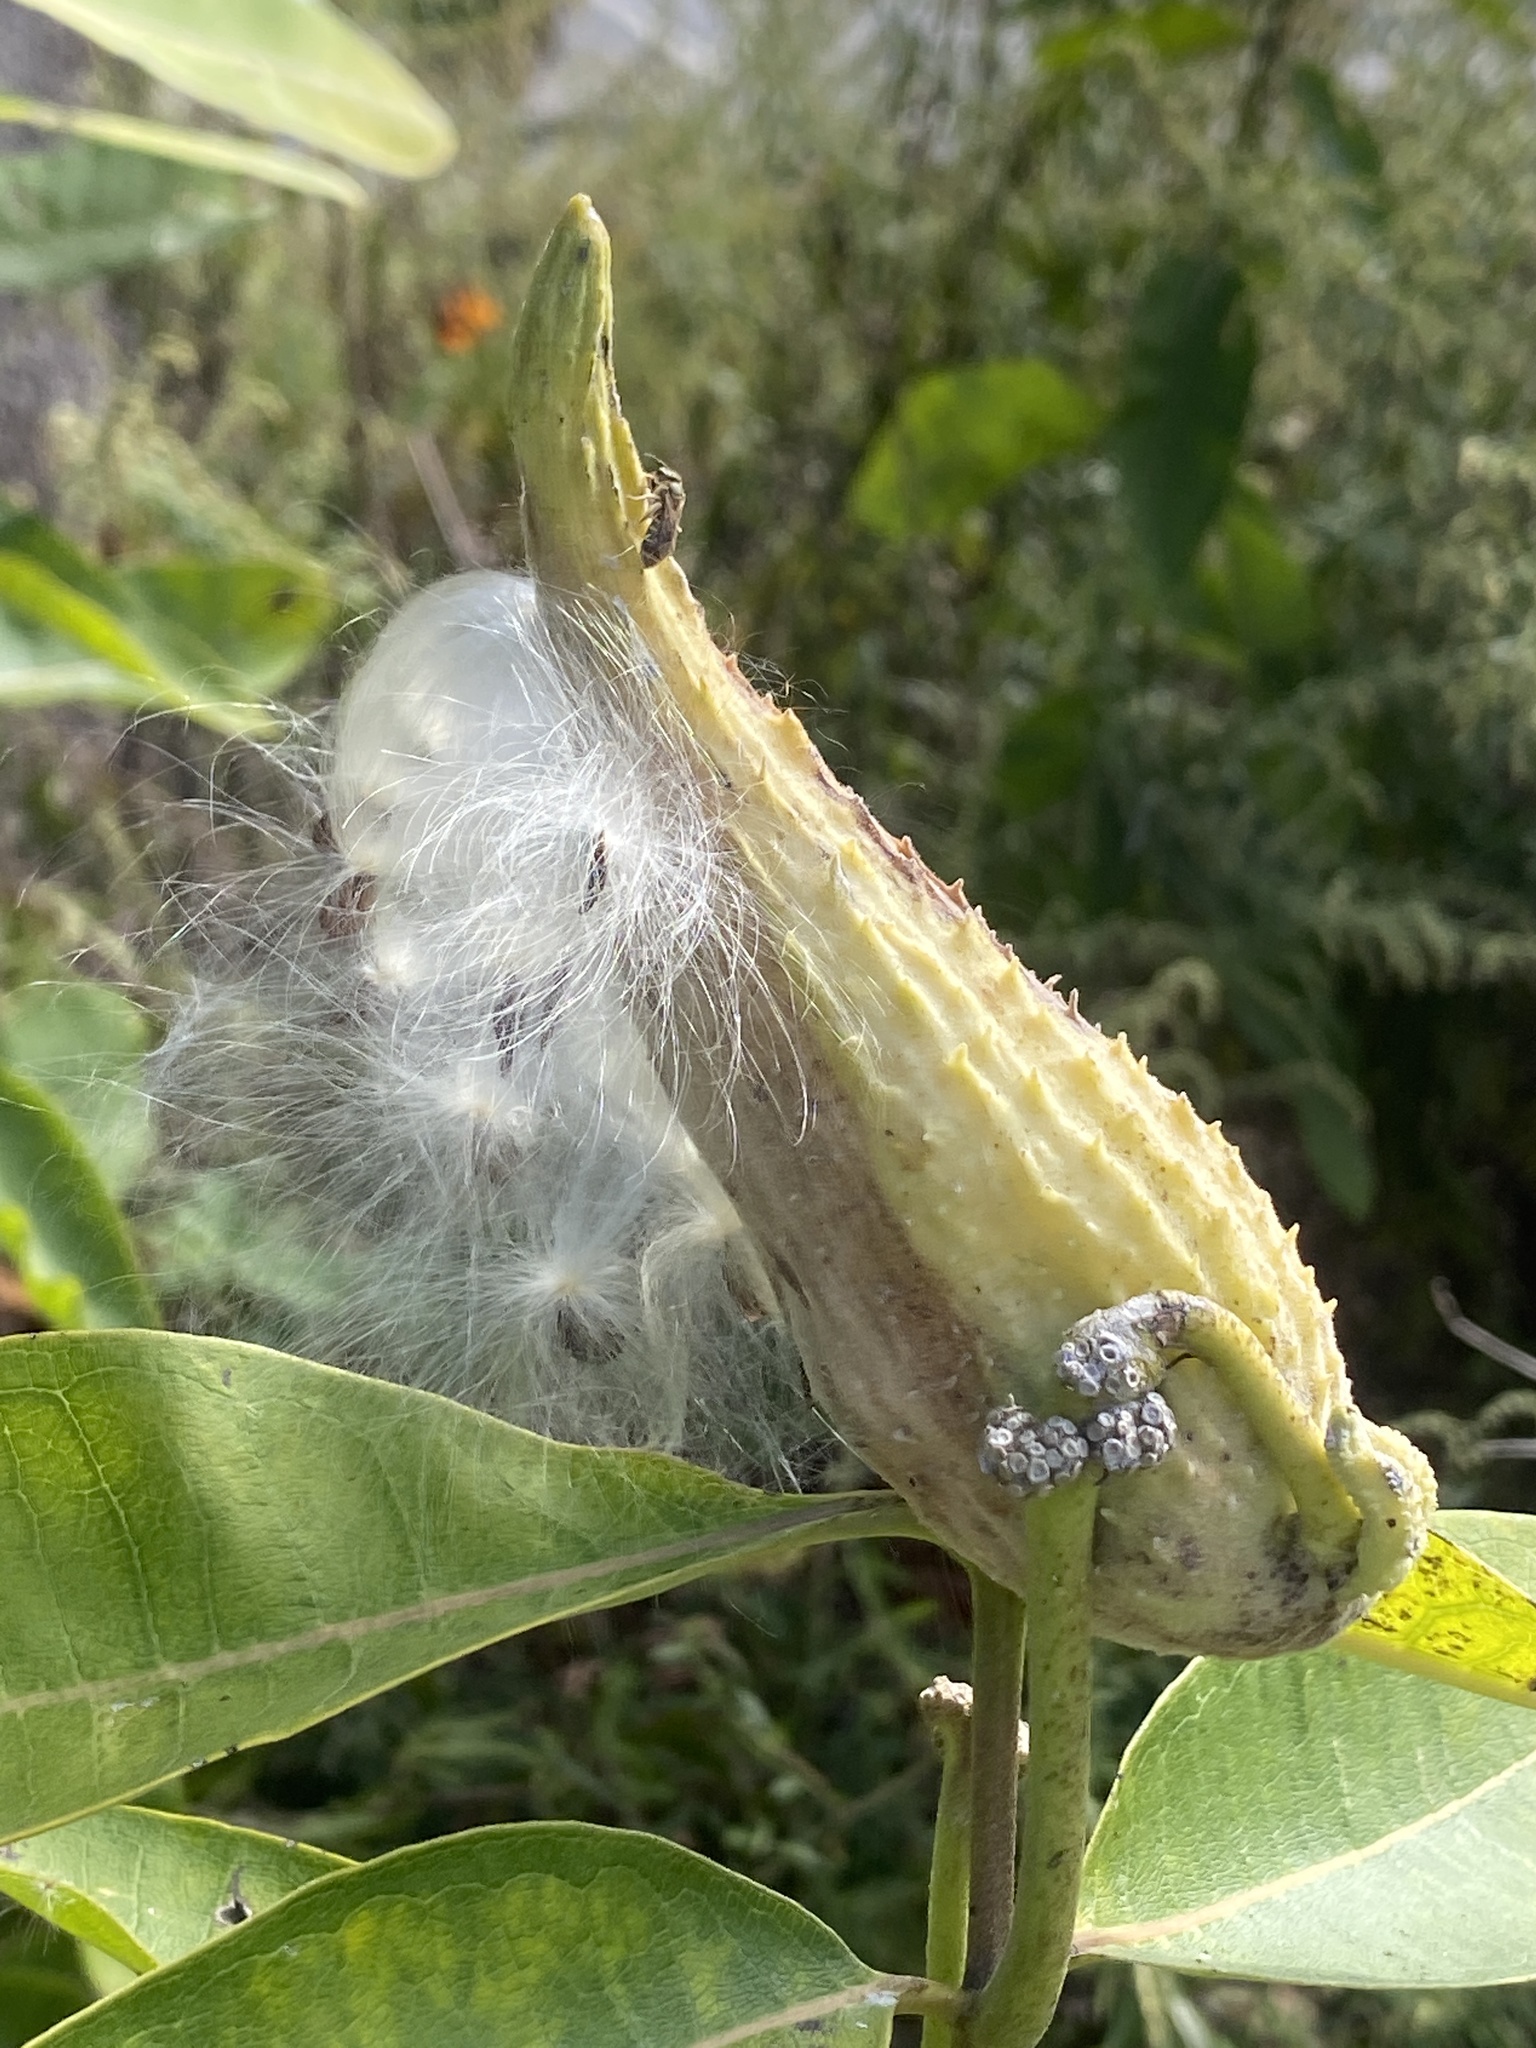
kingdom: Plantae
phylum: Tracheophyta
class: Magnoliopsida
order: Gentianales
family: Apocynaceae
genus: Asclepias
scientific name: Asclepias syriaca
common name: Common milkweed
